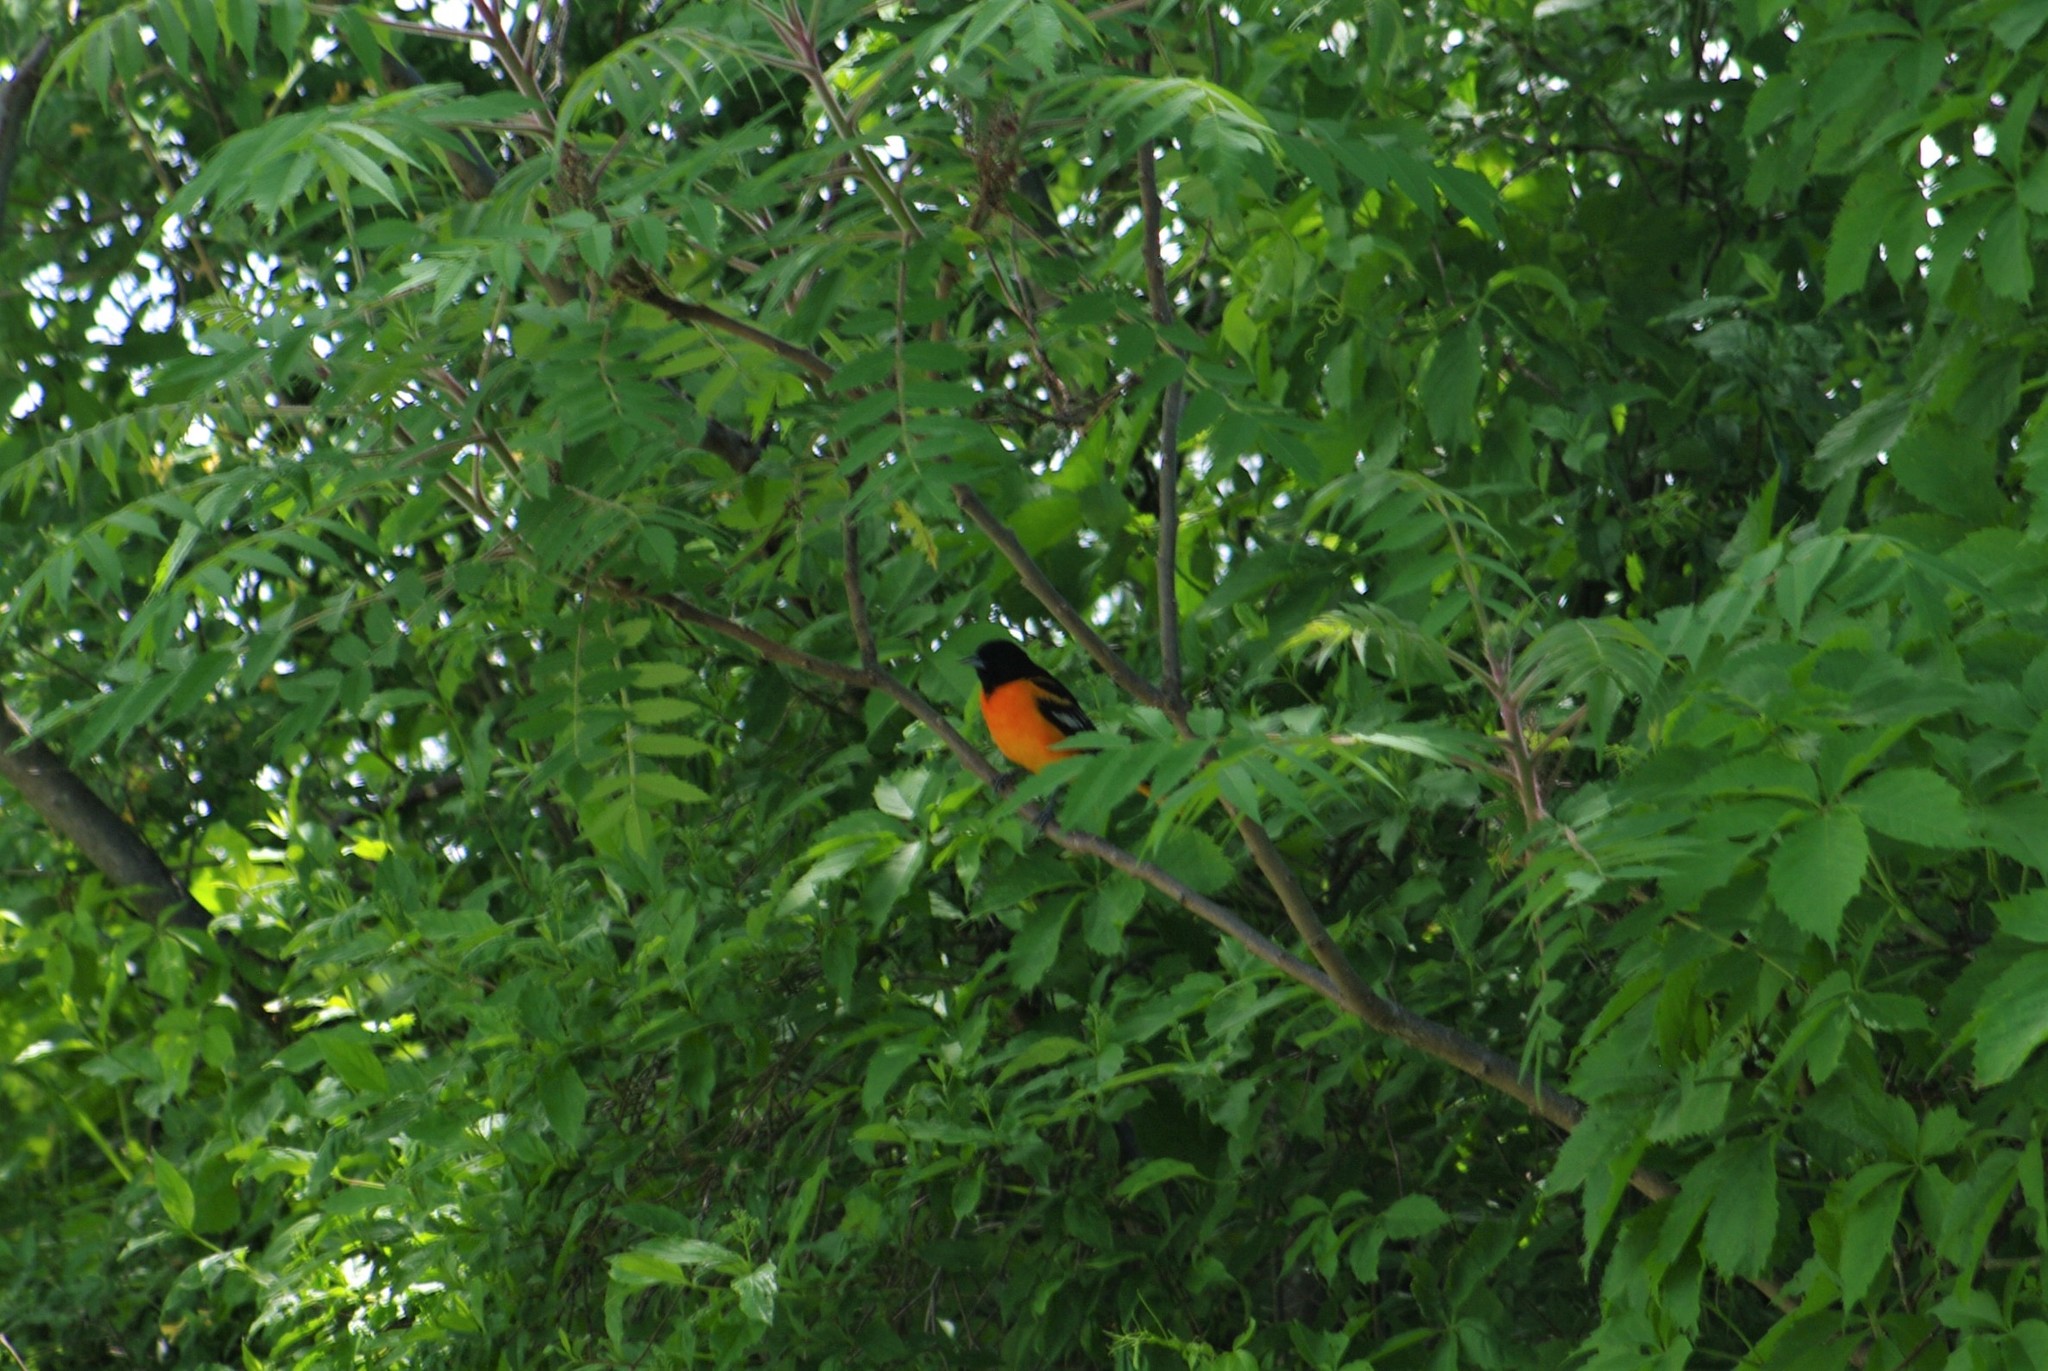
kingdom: Animalia
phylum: Chordata
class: Aves
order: Passeriformes
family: Icteridae
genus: Icterus
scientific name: Icterus galbula
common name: Baltimore oriole
